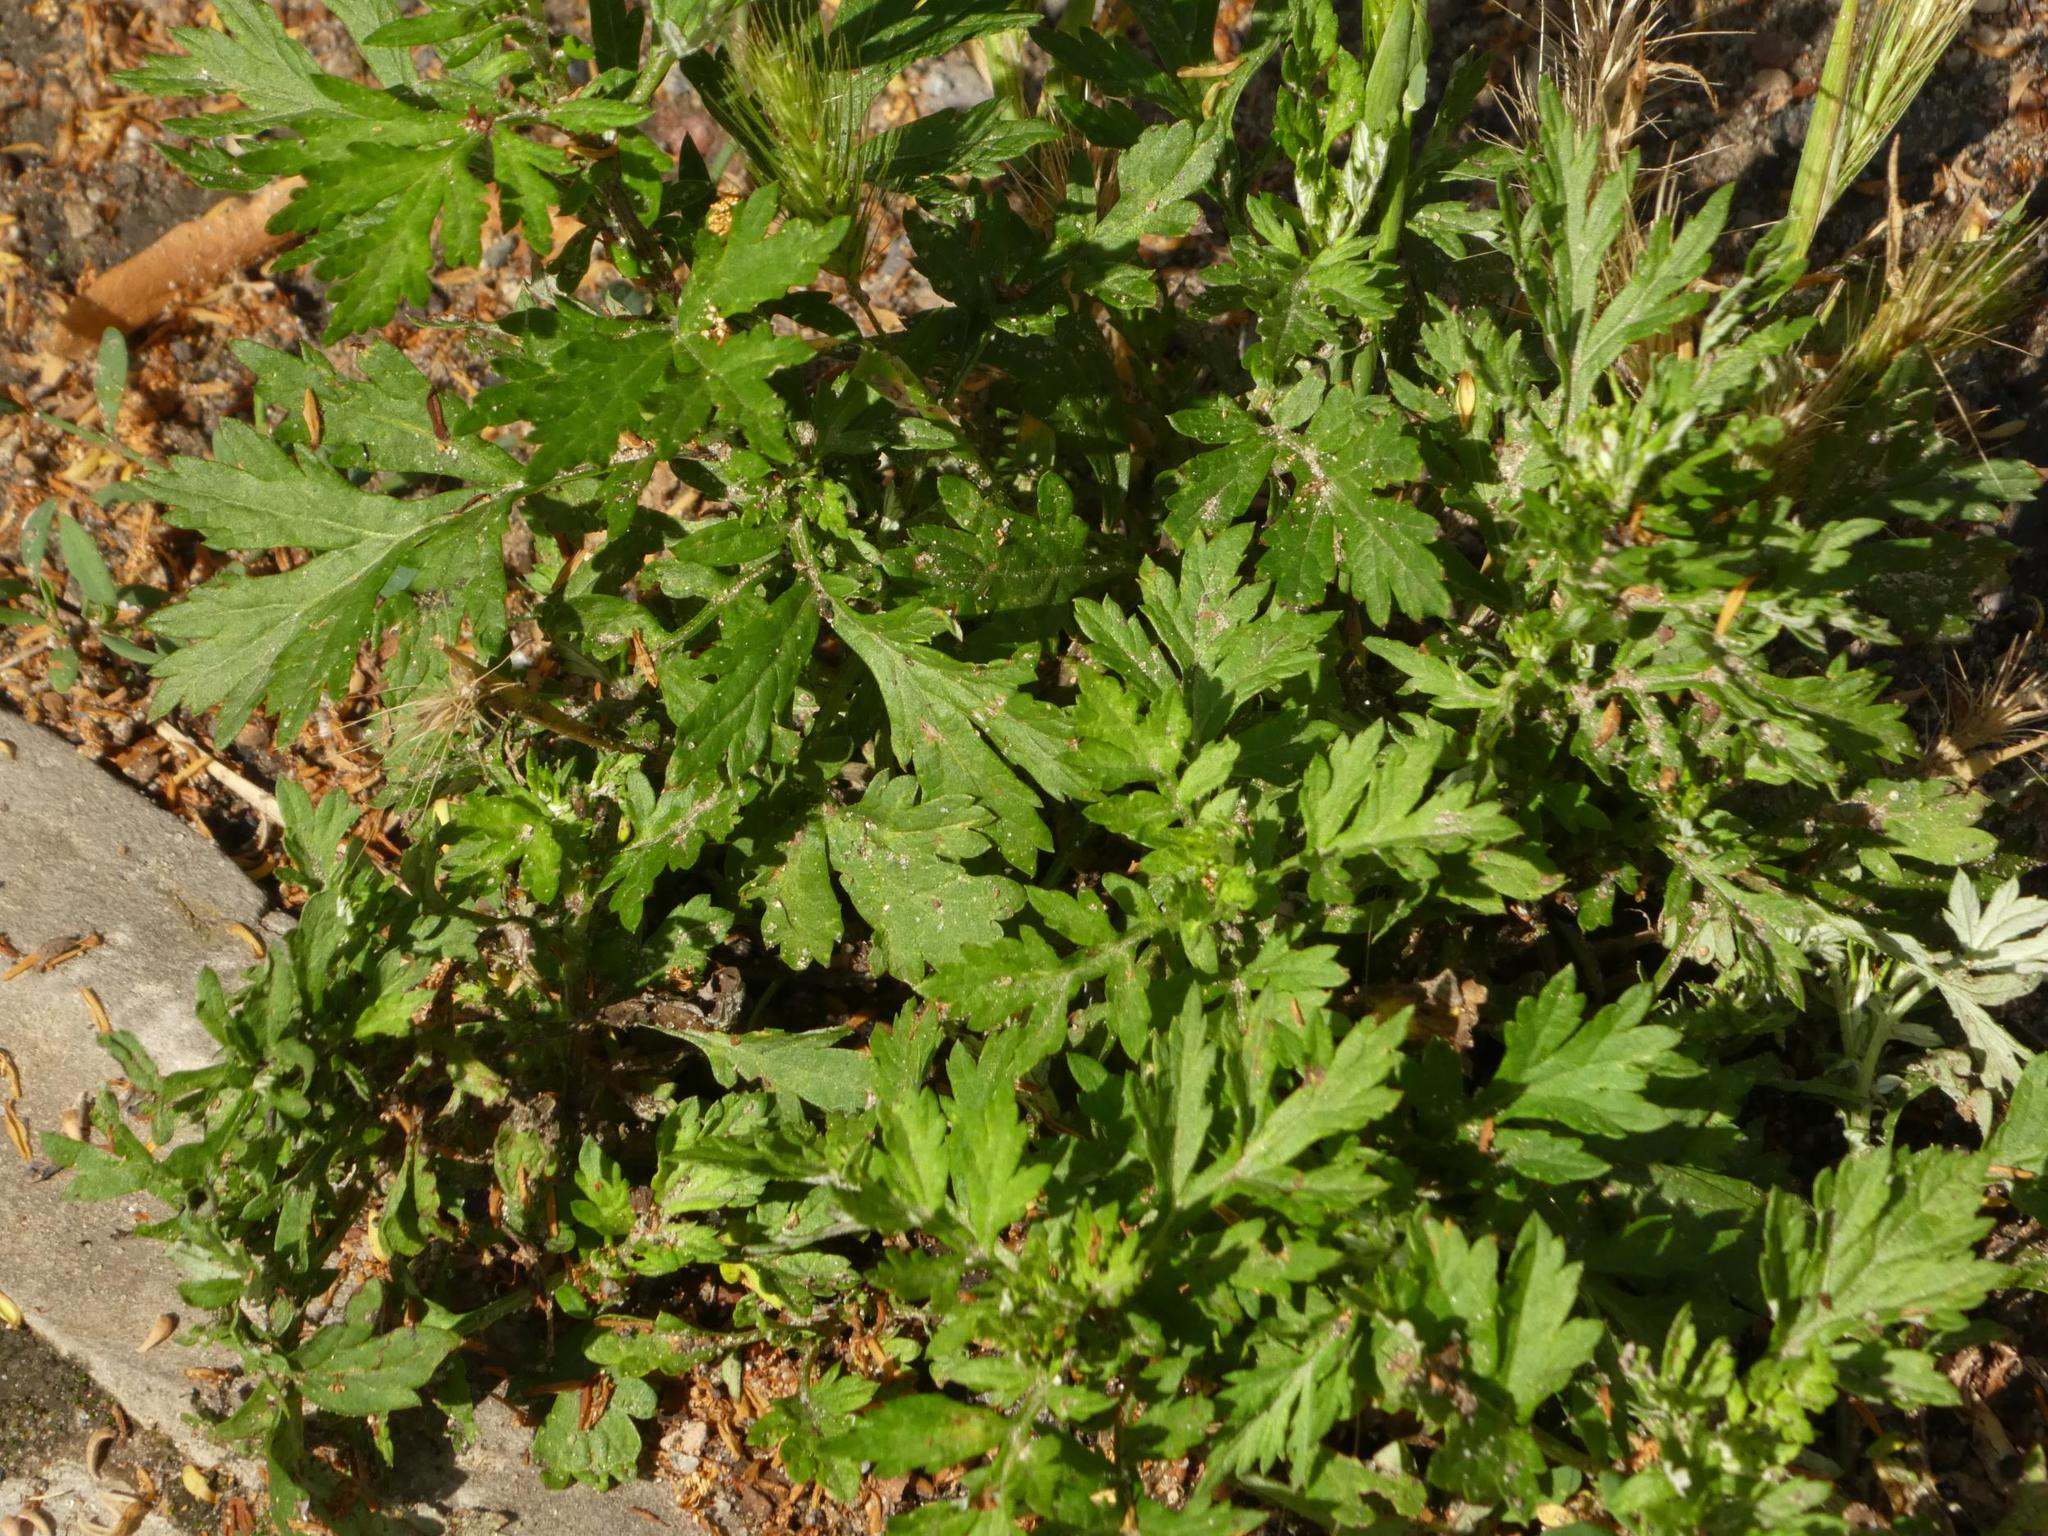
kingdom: Plantae
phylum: Tracheophyta
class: Magnoliopsida
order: Asterales
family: Asteraceae
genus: Artemisia
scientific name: Artemisia vulgaris
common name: Mugwort
